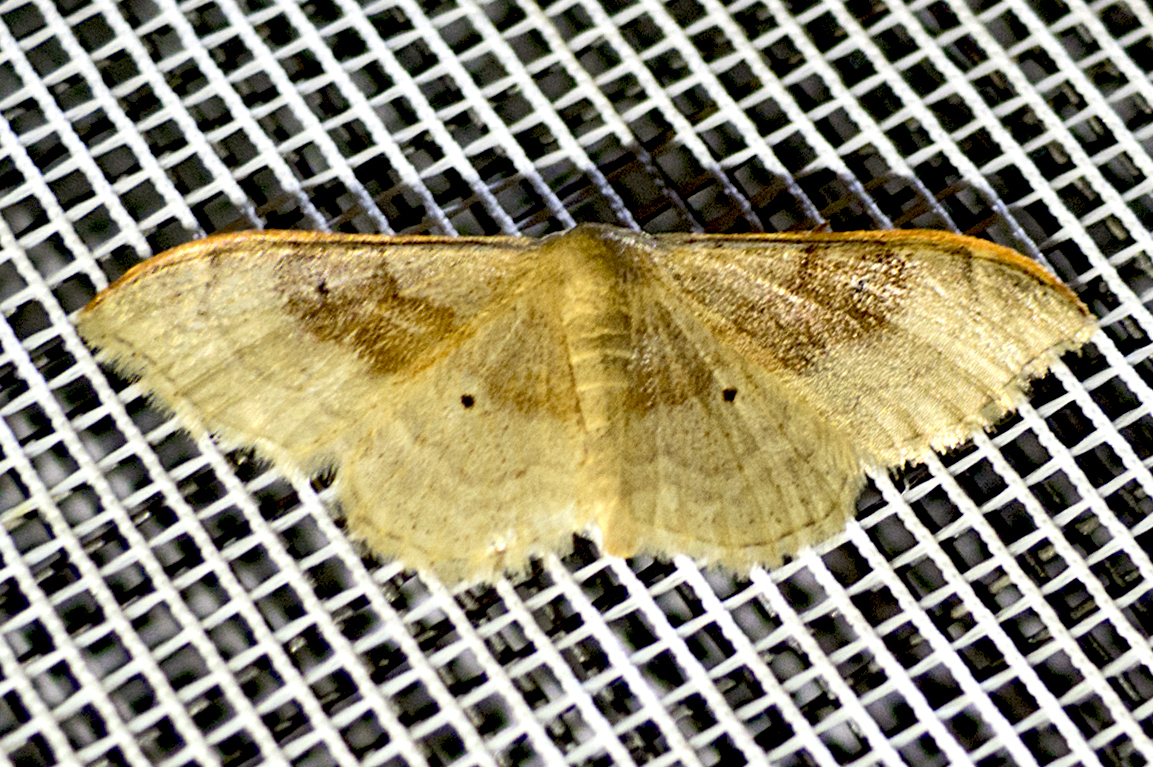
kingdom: Animalia
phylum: Arthropoda
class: Insecta
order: Lepidoptera
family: Geometridae
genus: Idaea
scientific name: Idaea degeneraria
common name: Portland ribbon wave
